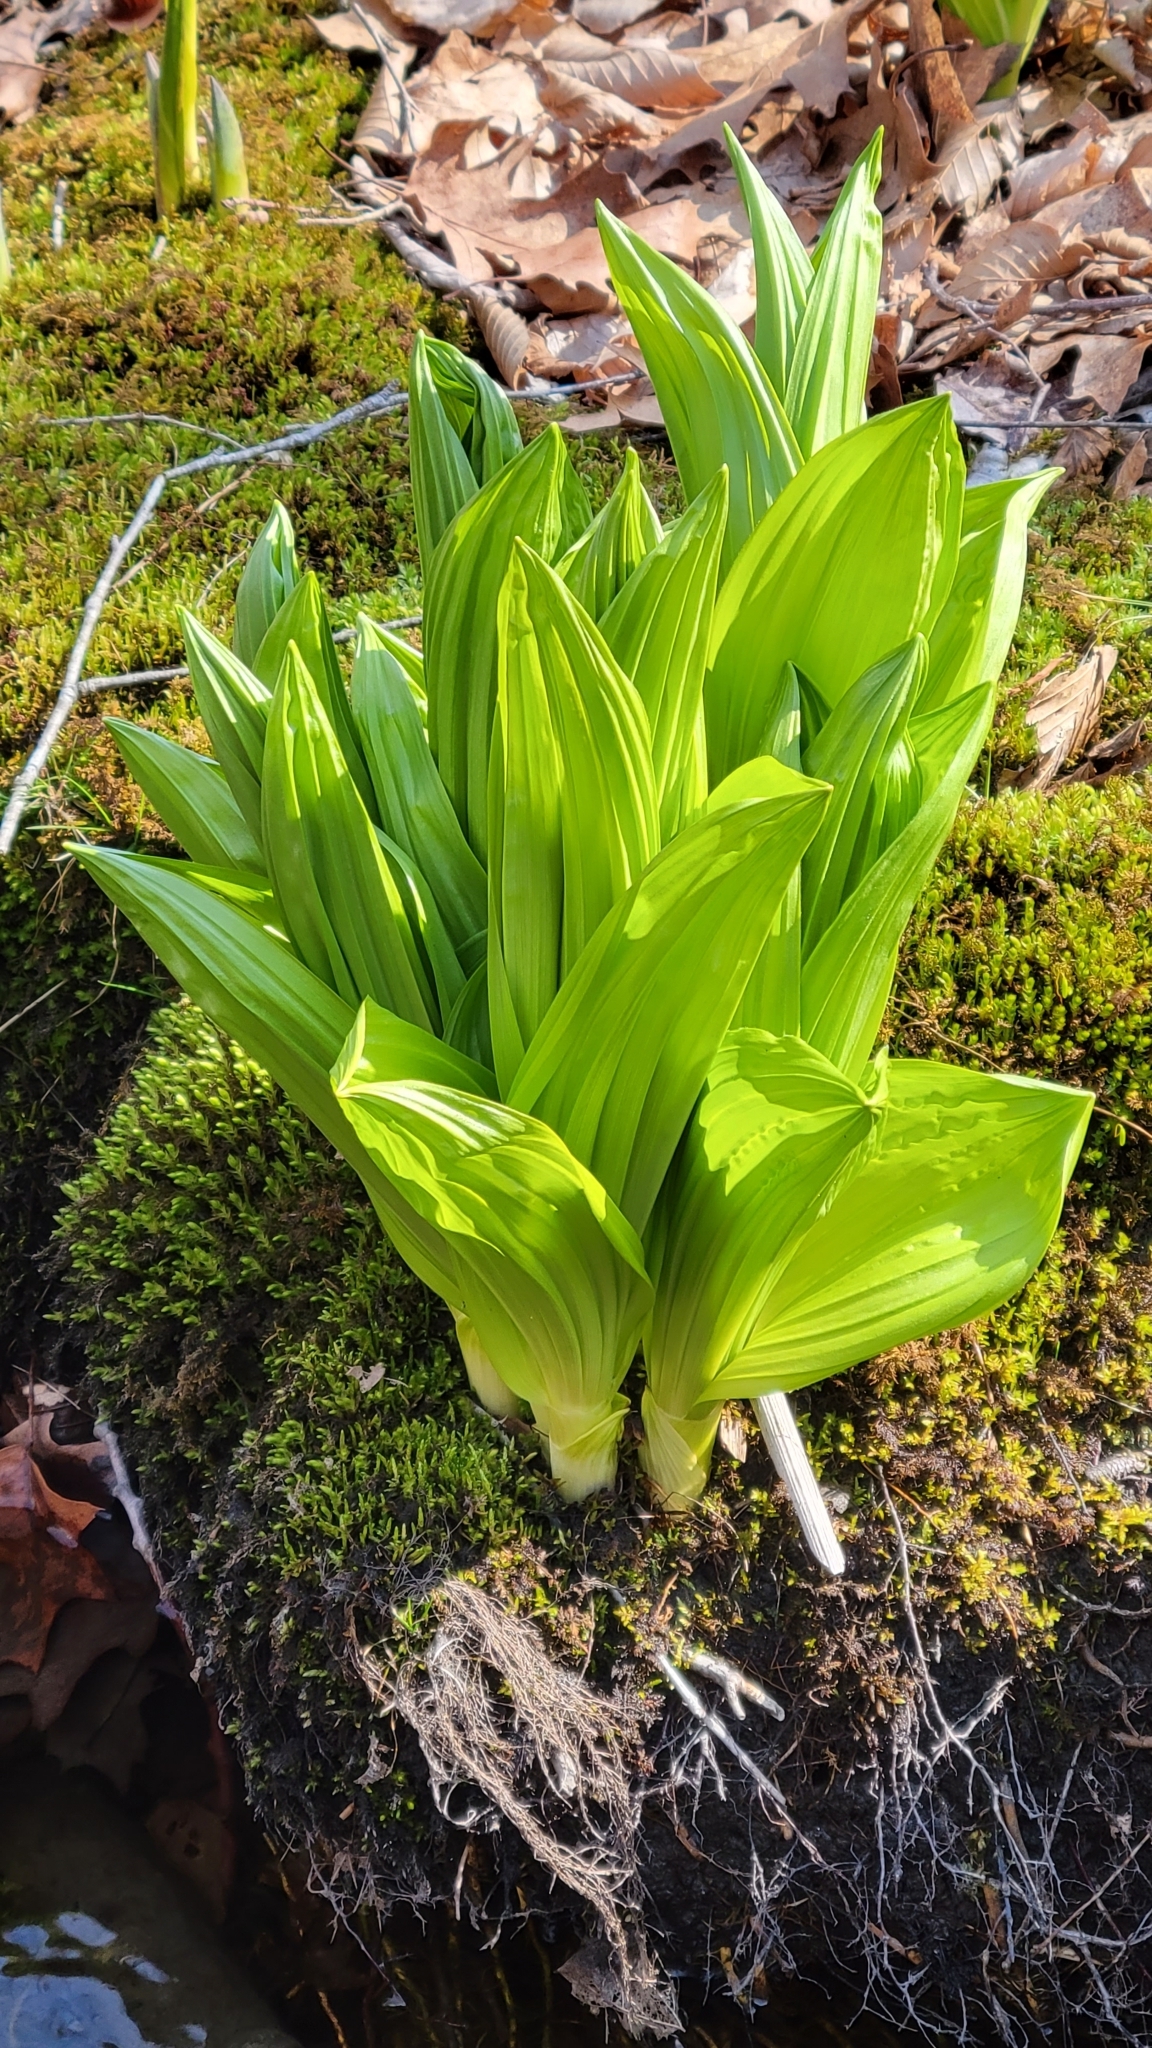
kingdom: Plantae
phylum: Tracheophyta
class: Liliopsida
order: Liliales
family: Melanthiaceae
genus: Veratrum
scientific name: Veratrum viride
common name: American false hellebore
